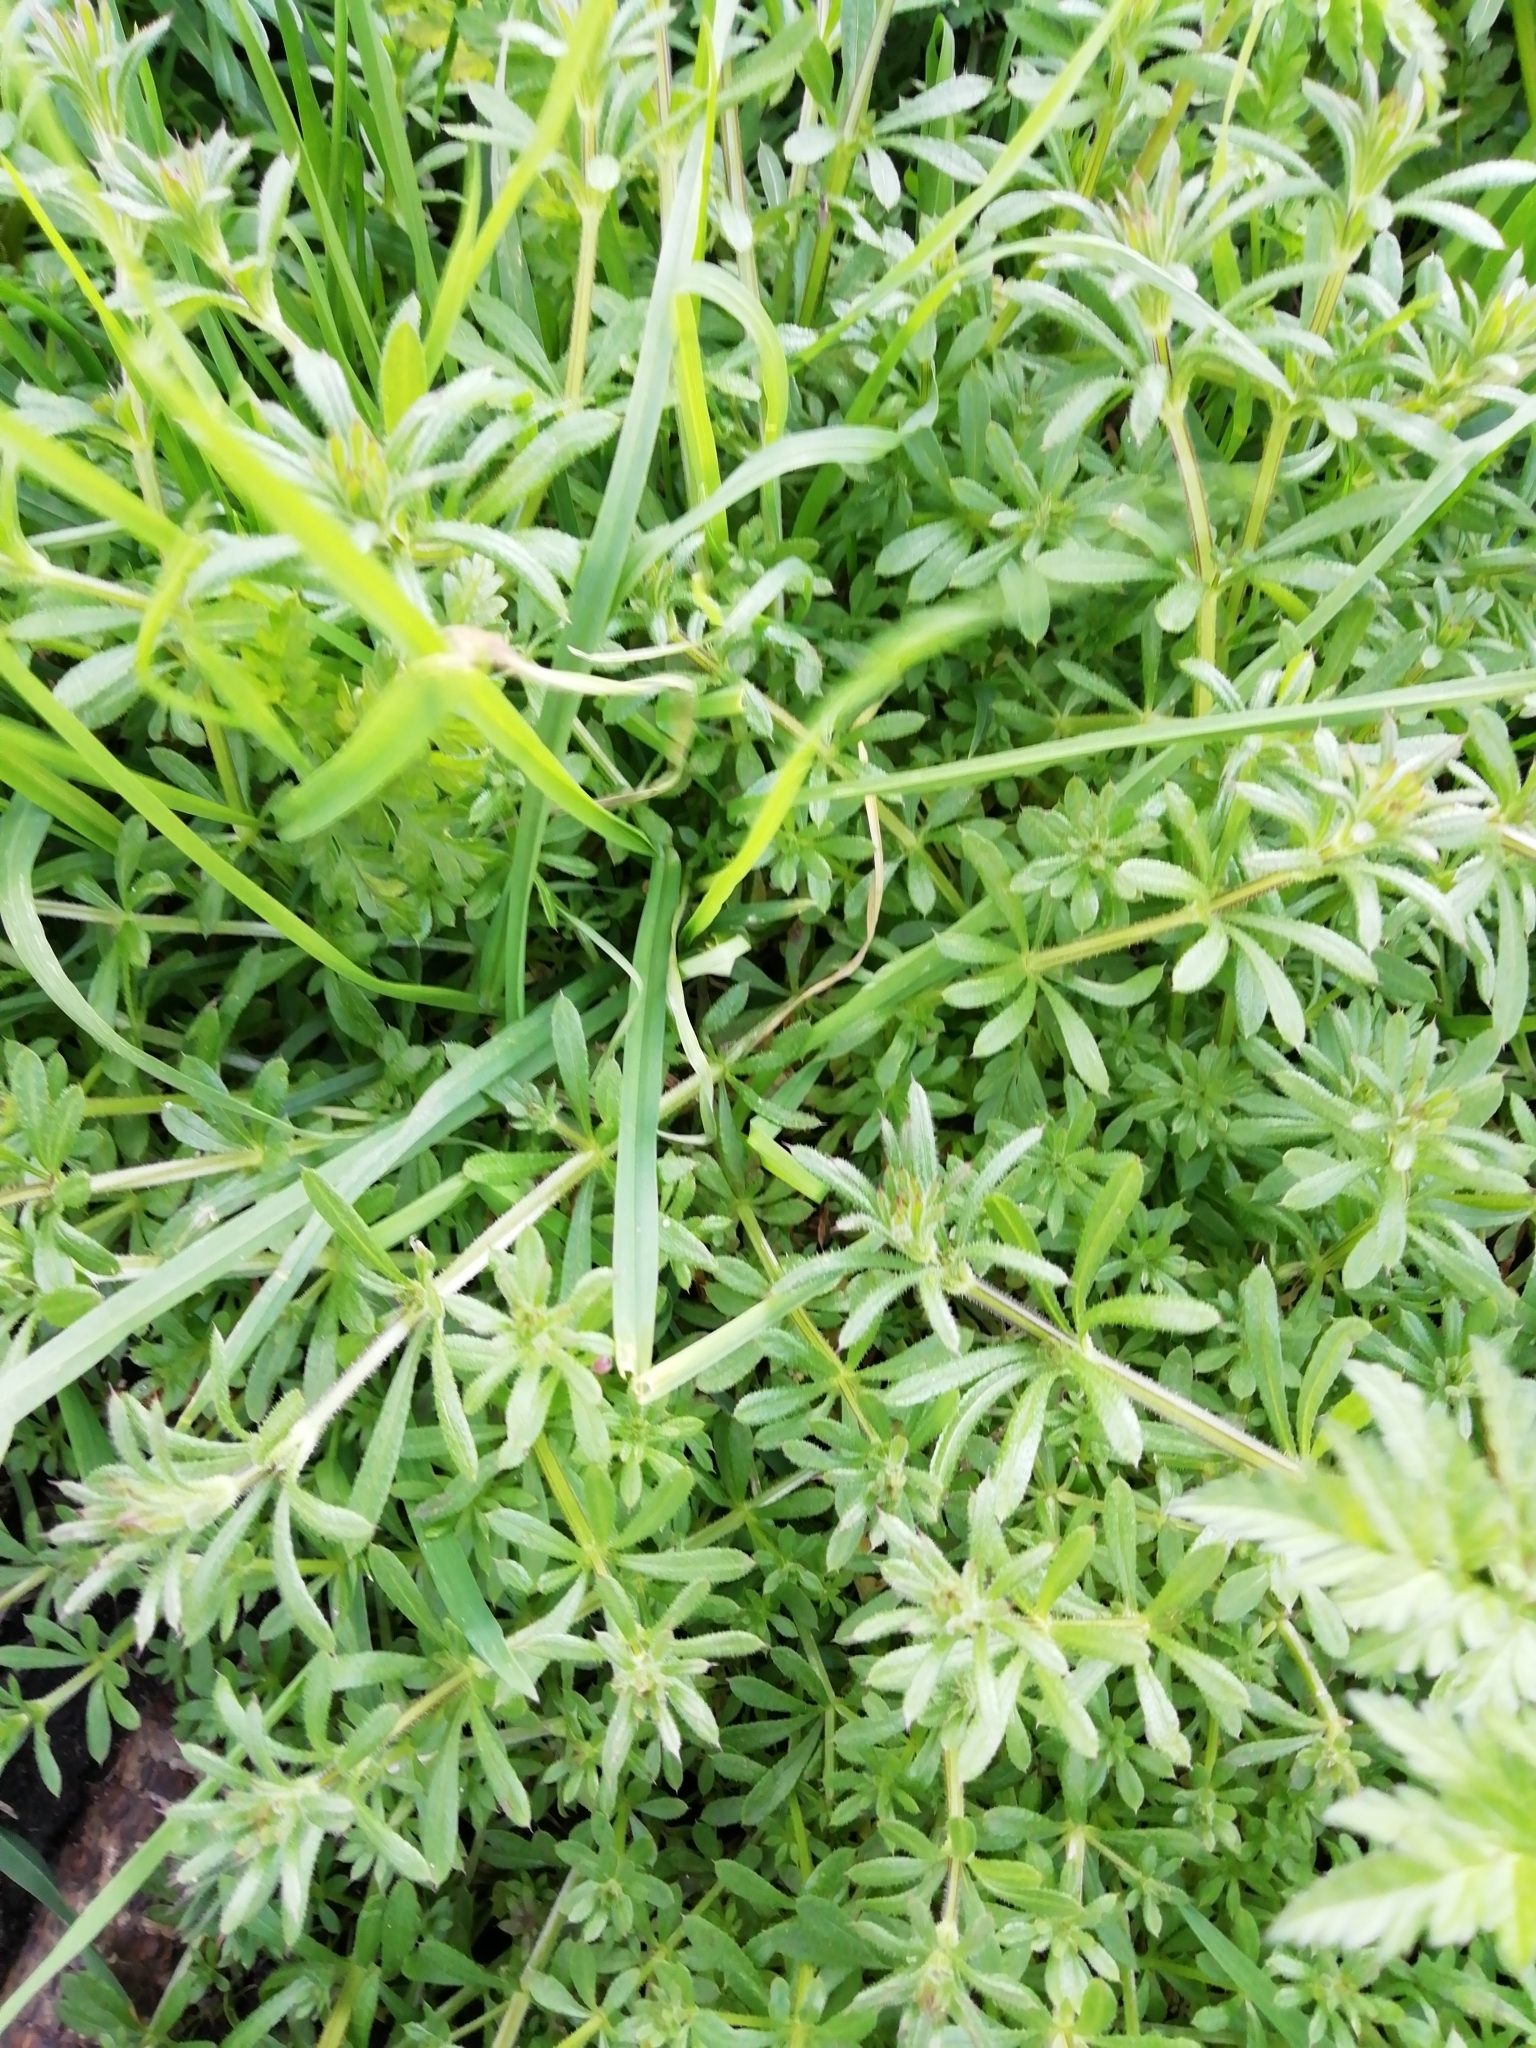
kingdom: Plantae
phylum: Tracheophyta
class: Magnoliopsida
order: Gentianales
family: Rubiaceae
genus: Galium
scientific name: Galium aparine
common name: Cleavers
